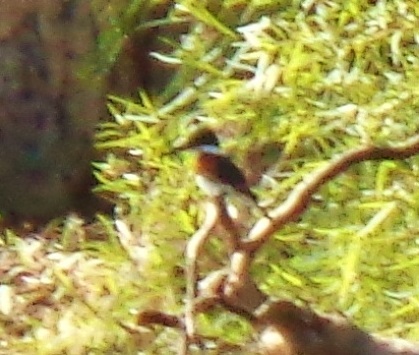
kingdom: Animalia
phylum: Chordata
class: Aves
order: Coraciiformes
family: Alcedinidae
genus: Chloroceryle
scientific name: Chloroceryle americana
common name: Green kingfisher
